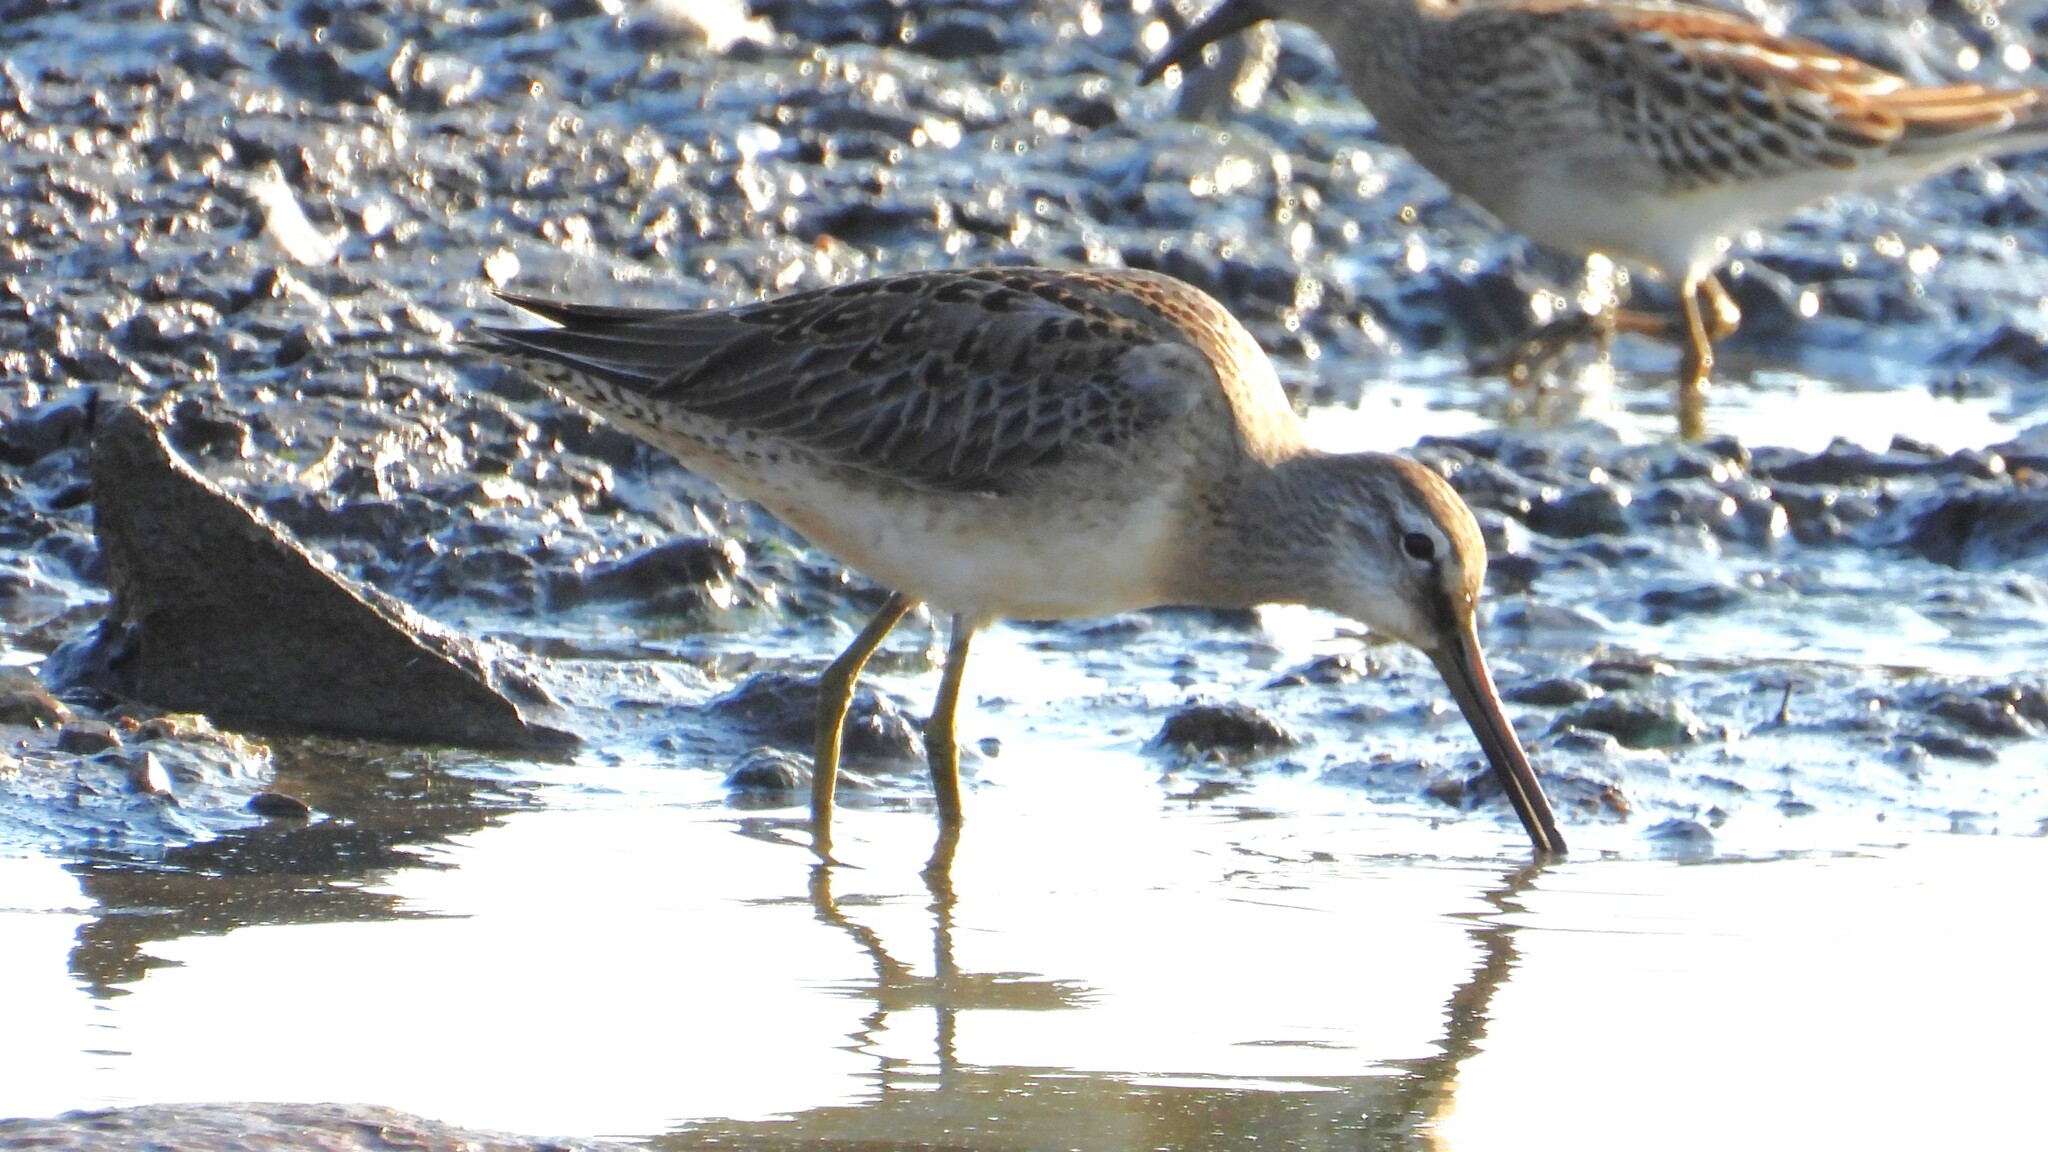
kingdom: Animalia
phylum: Chordata
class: Aves
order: Charadriiformes
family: Scolopacidae
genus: Limnodromus
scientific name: Limnodromus scolopaceus
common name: Long-billed dowitcher
